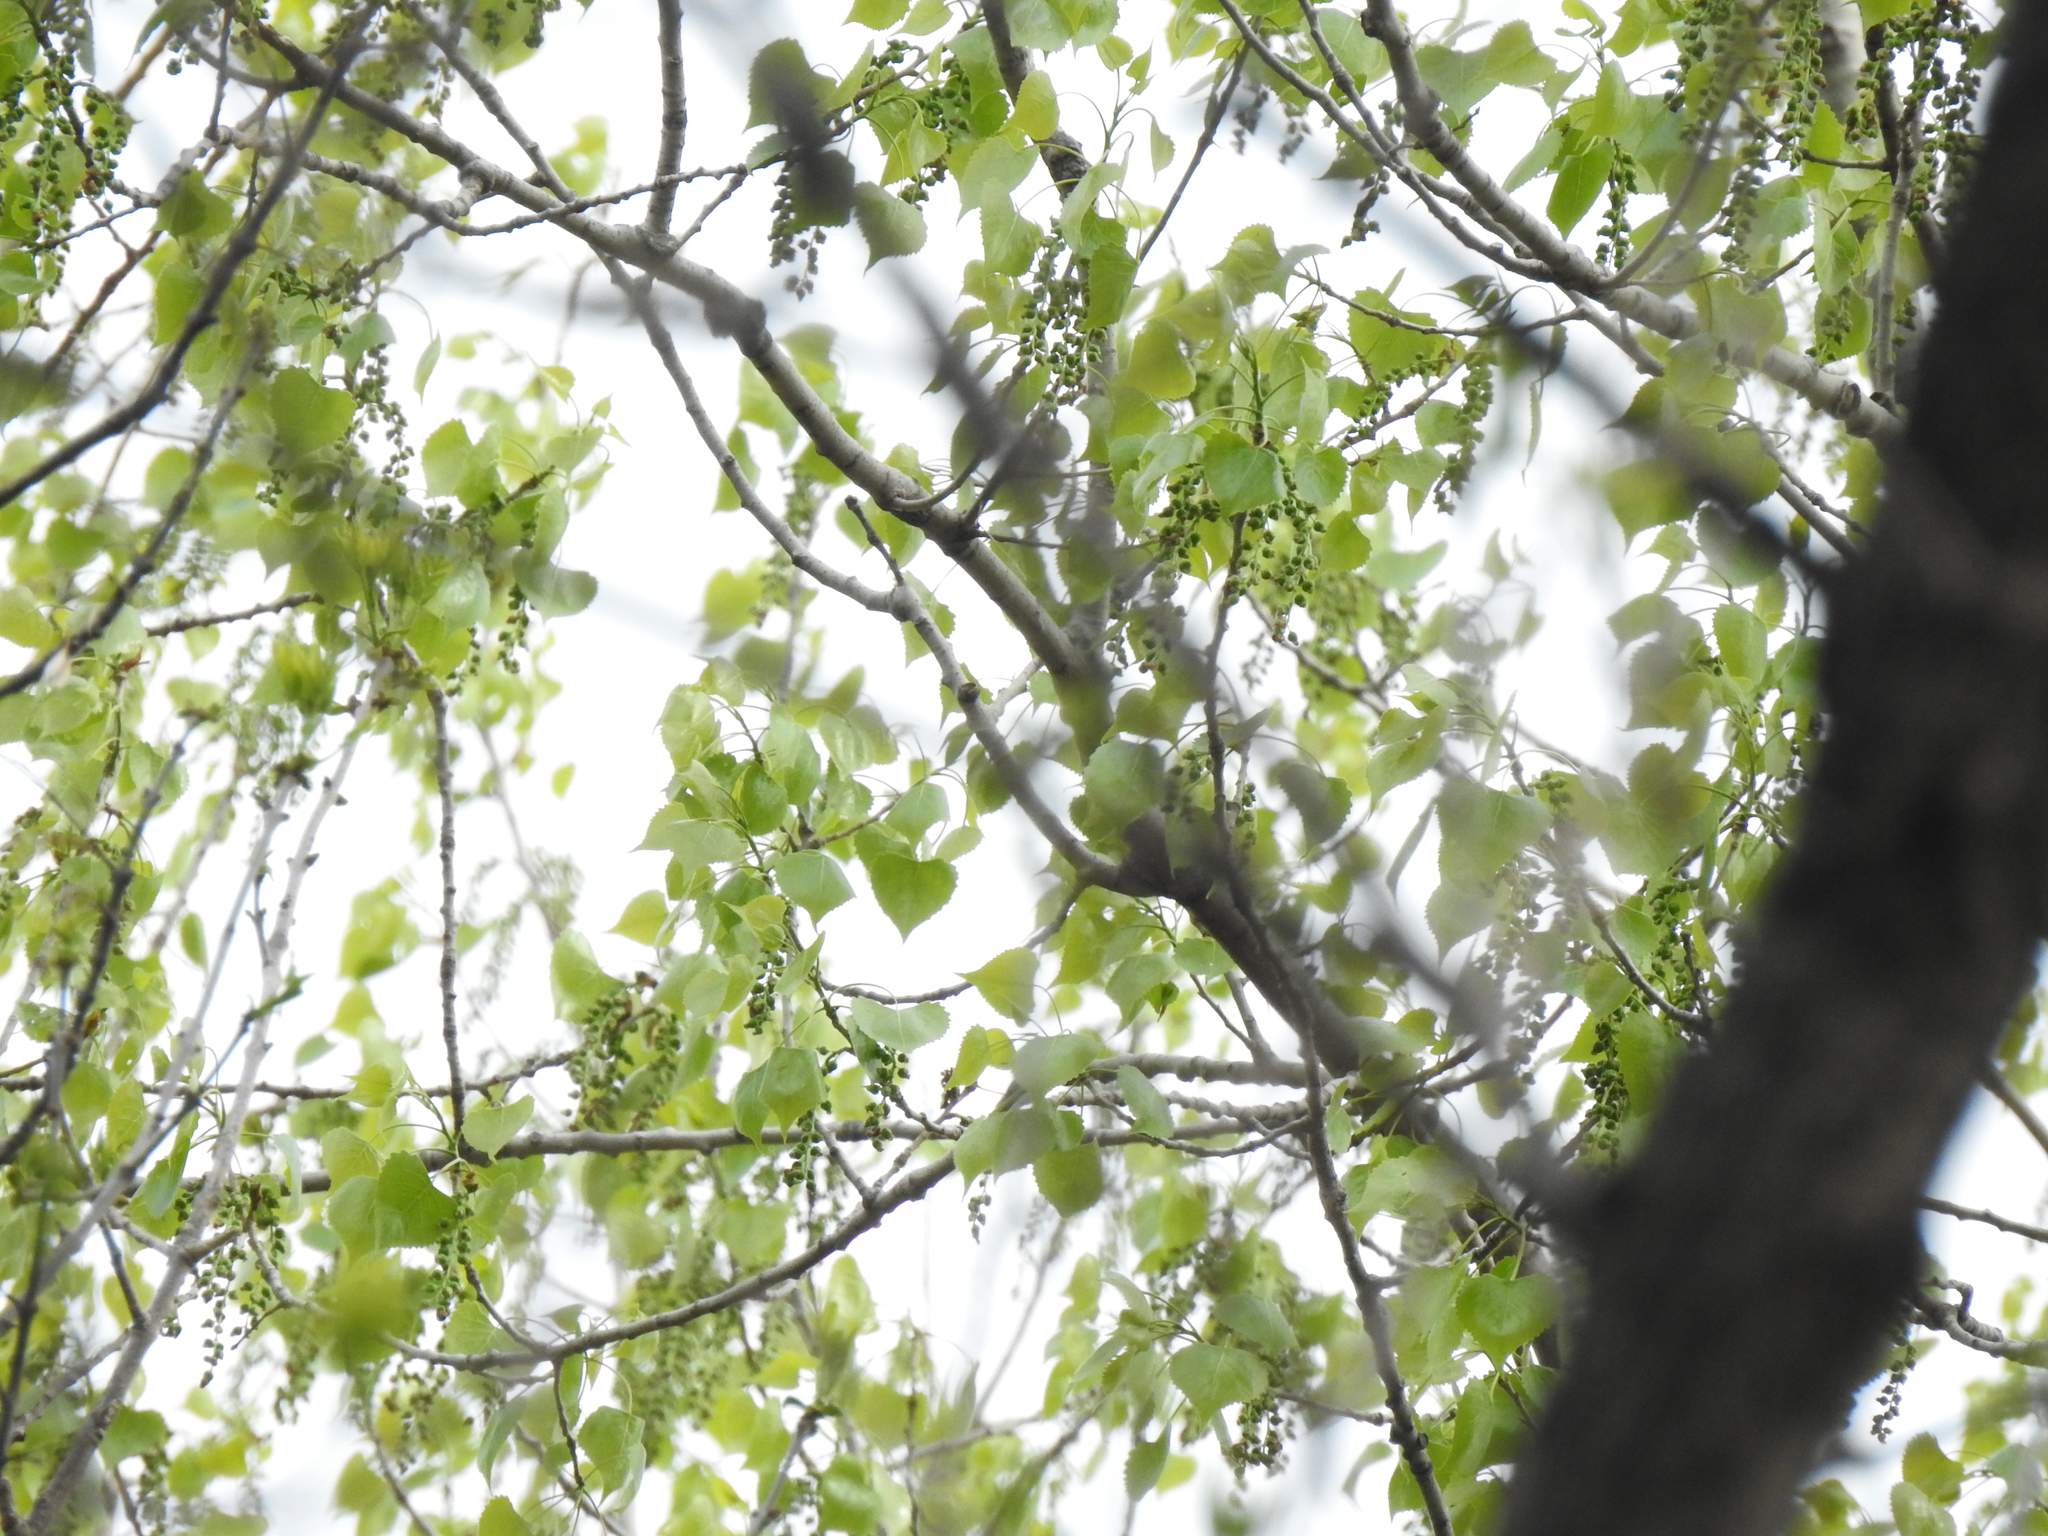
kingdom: Plantae
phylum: Tracheophyta
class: Magnoliopsida
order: Malpighiales
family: Salicaceae
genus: Populus
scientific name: Populus deltoides
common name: Eastern cottonwood
